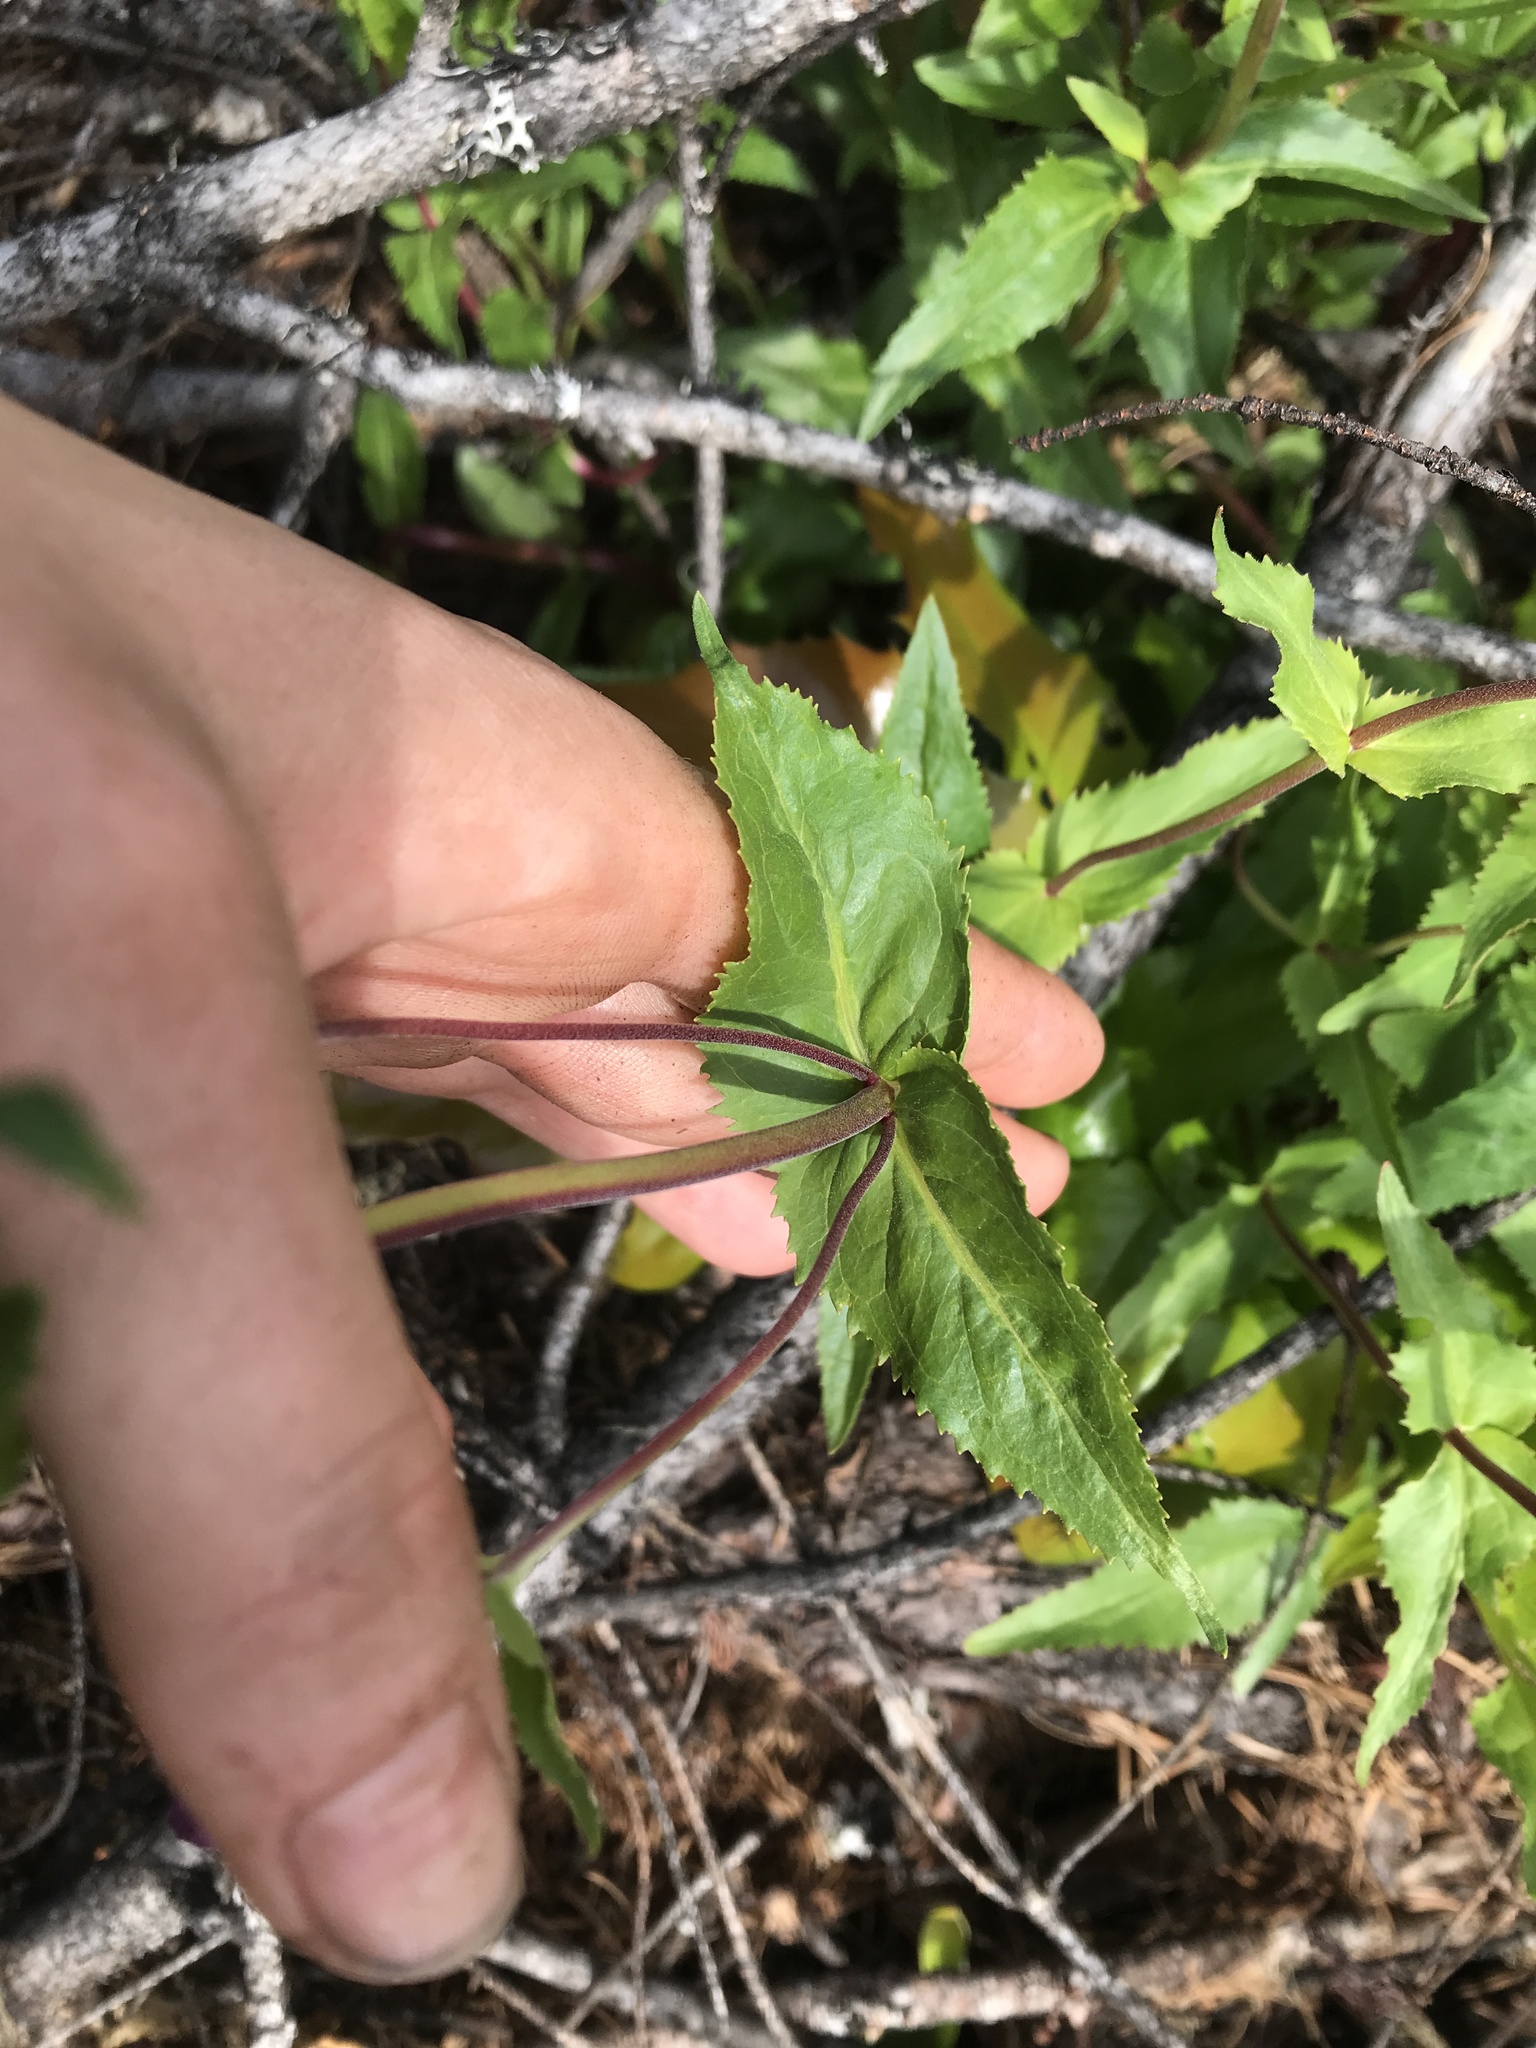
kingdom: Plantae
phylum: Tracheophyta
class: Magnoliopsida
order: Lamiales
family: Plantaginaceae
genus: Penstemon
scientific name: Penstemon serrulatus
